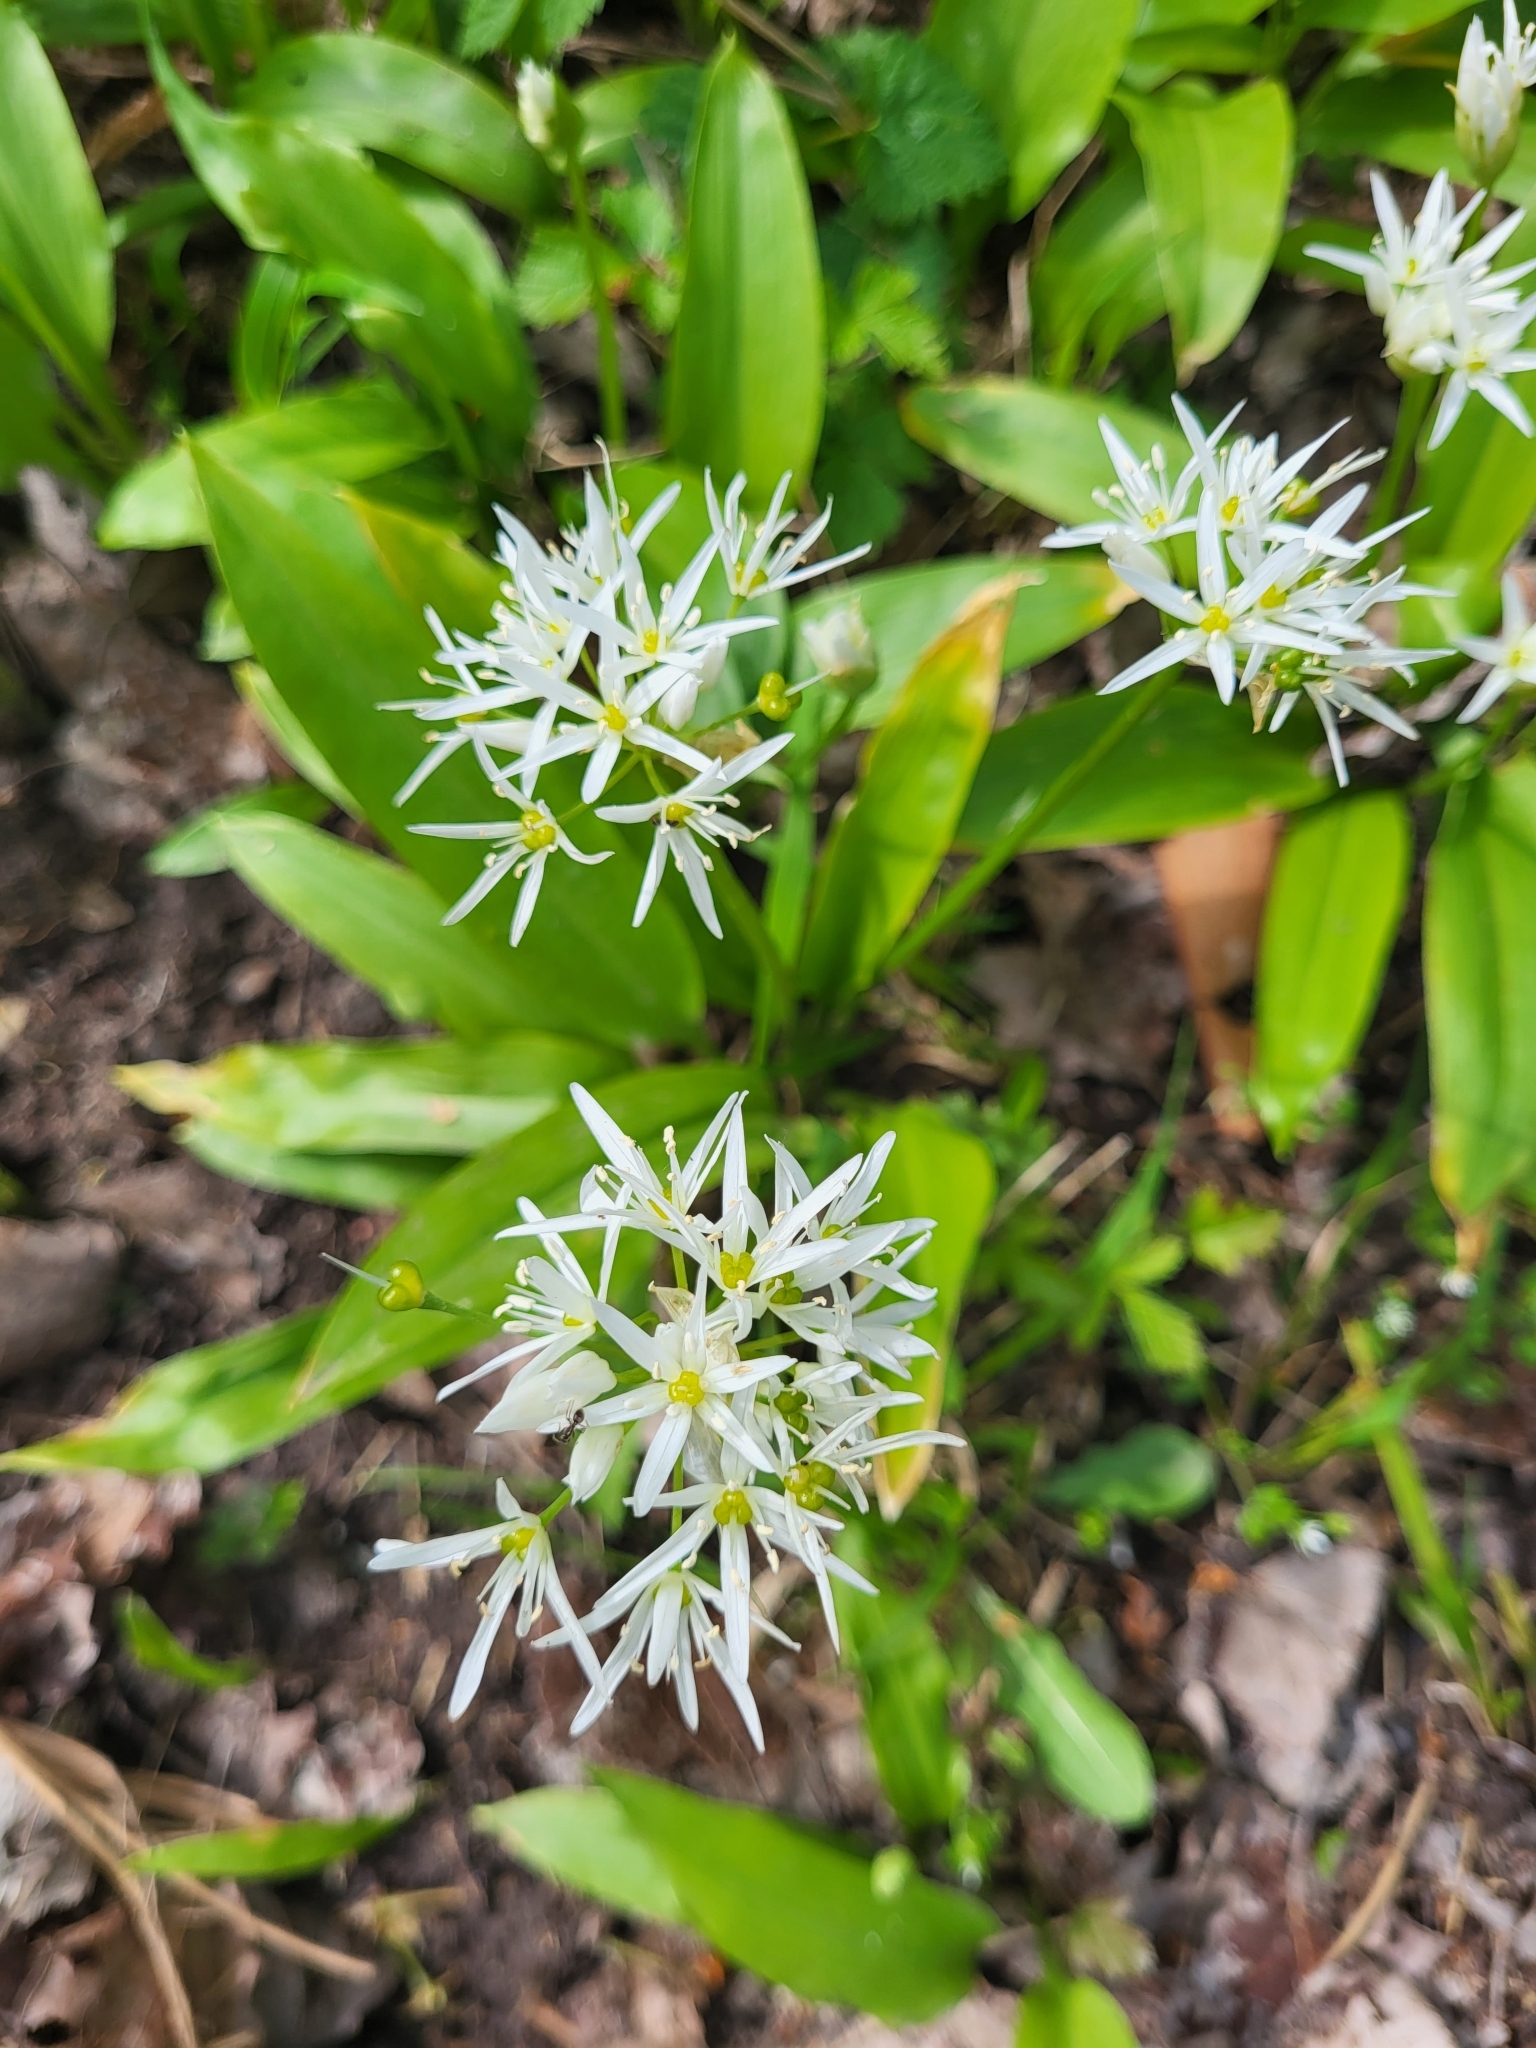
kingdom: Plantae
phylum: Tracheophyta
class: Liliopsida
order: Asparagales
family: Amaryllidaceae
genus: Allium
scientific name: Allium ursinum
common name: Ramsons
